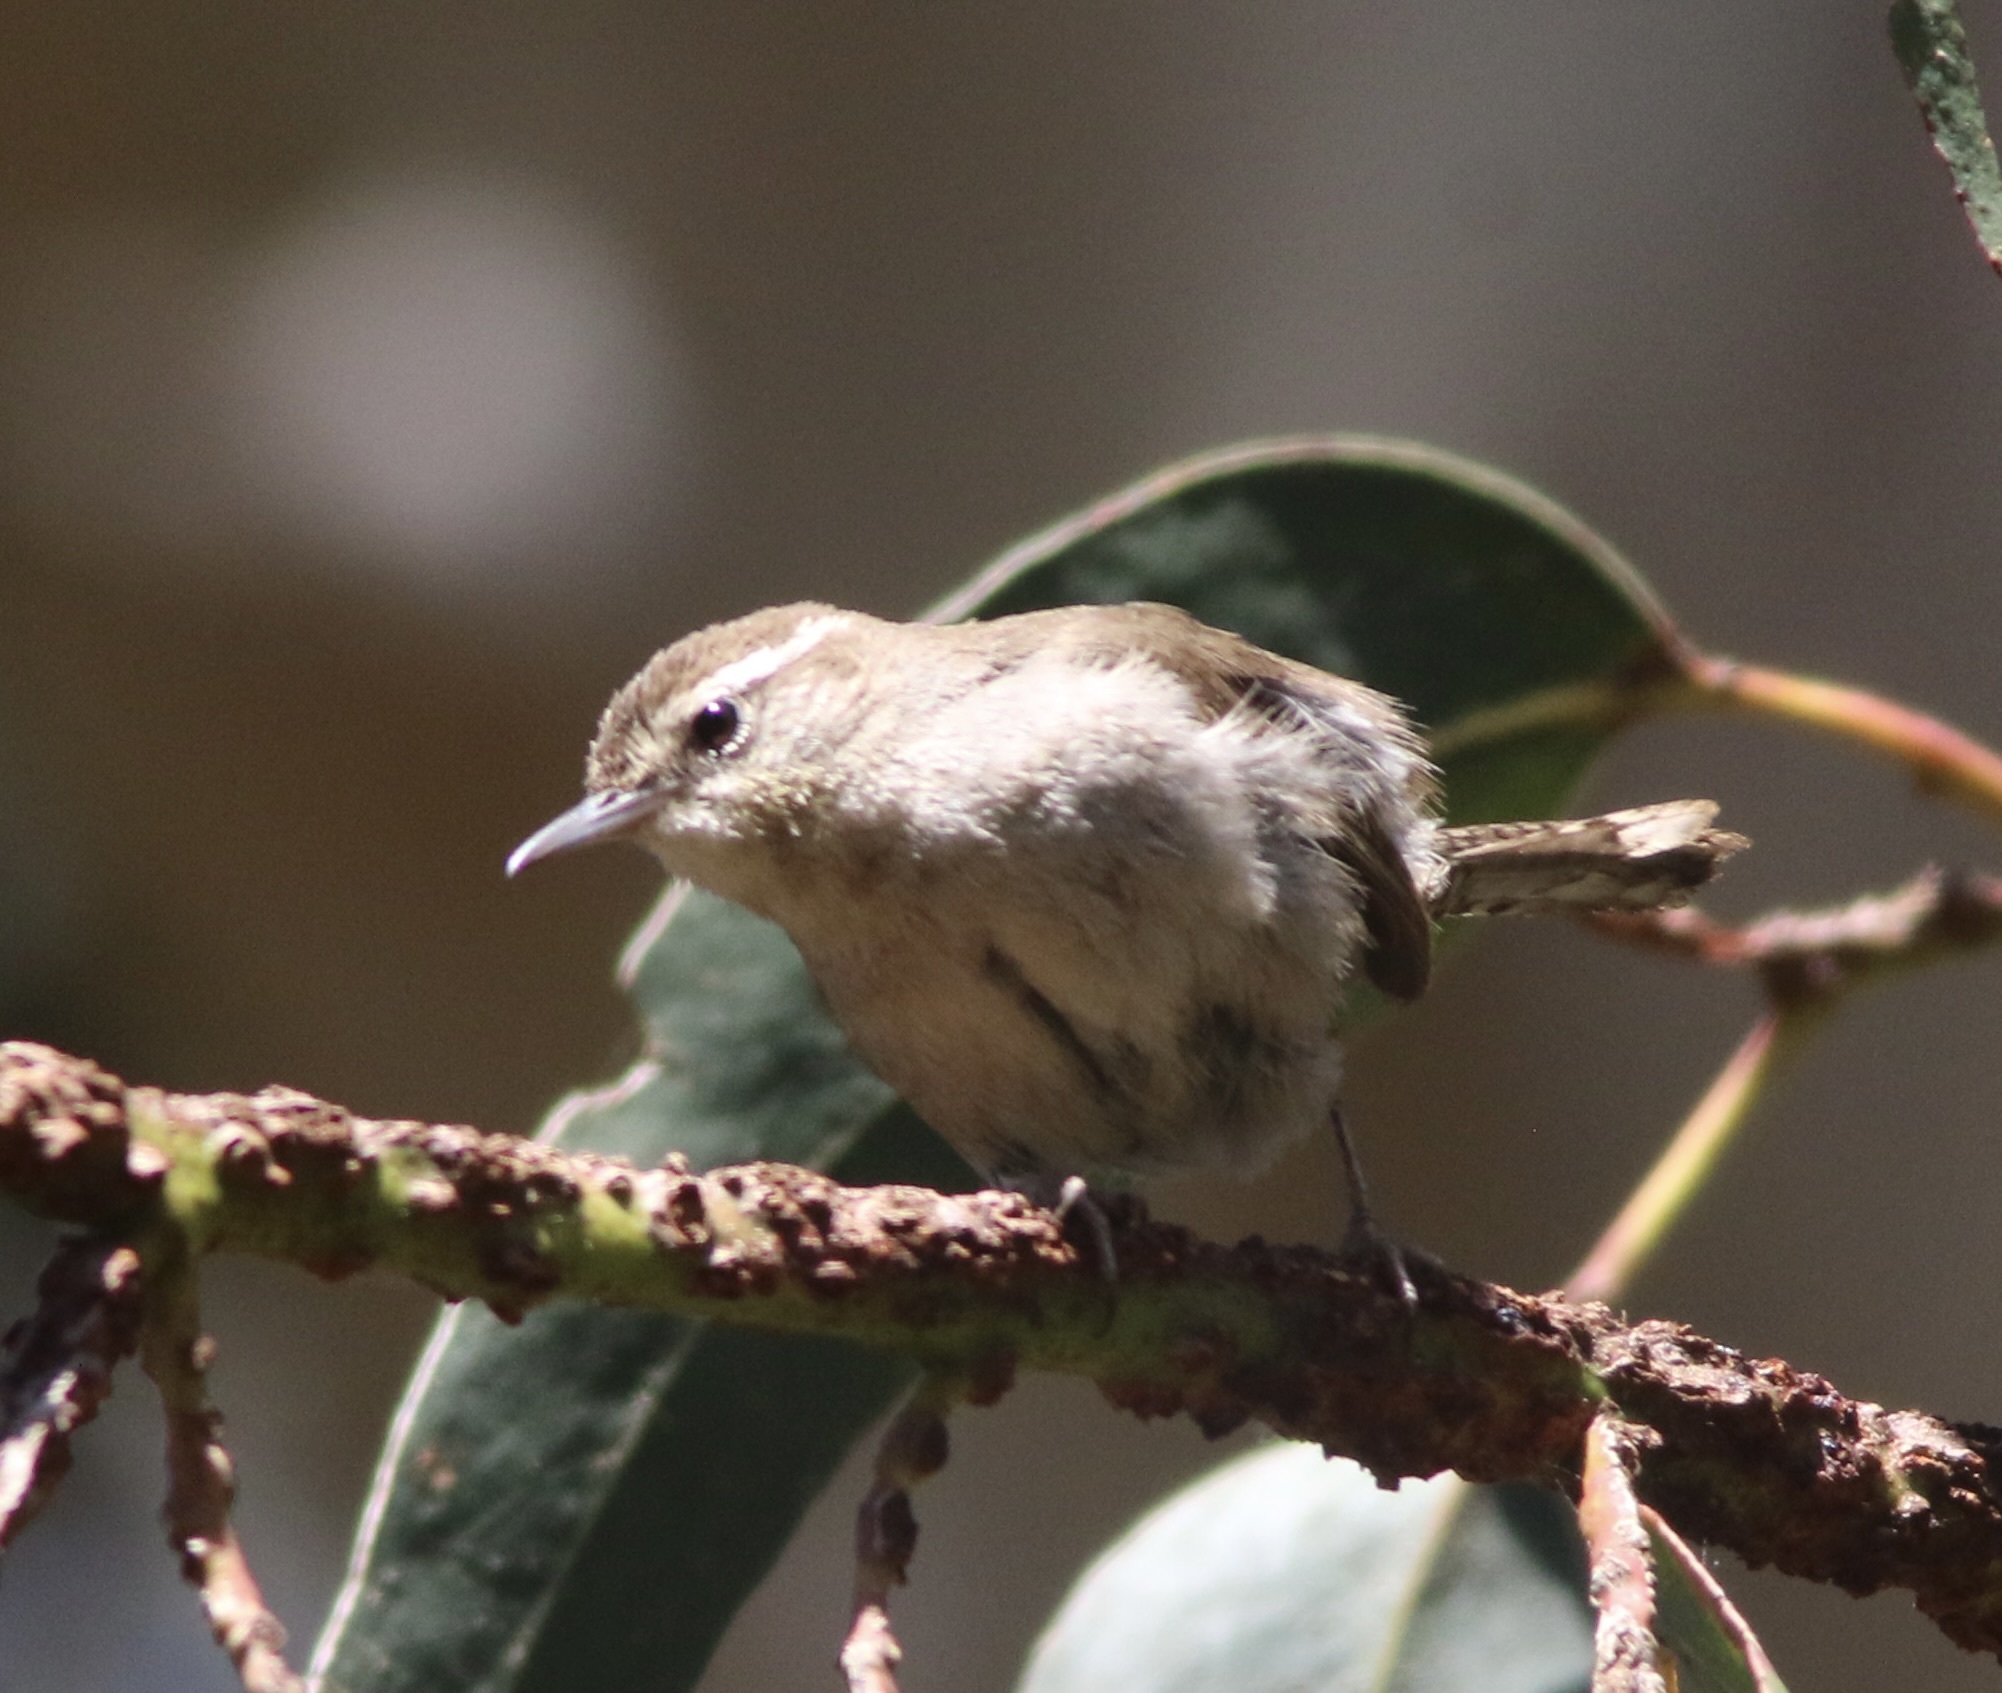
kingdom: Animalia
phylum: Chordata
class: Aves
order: Passeriformes
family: Troglodytidae
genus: Thryomanes
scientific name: Thryomanes bewickii
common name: Bewick's wren
